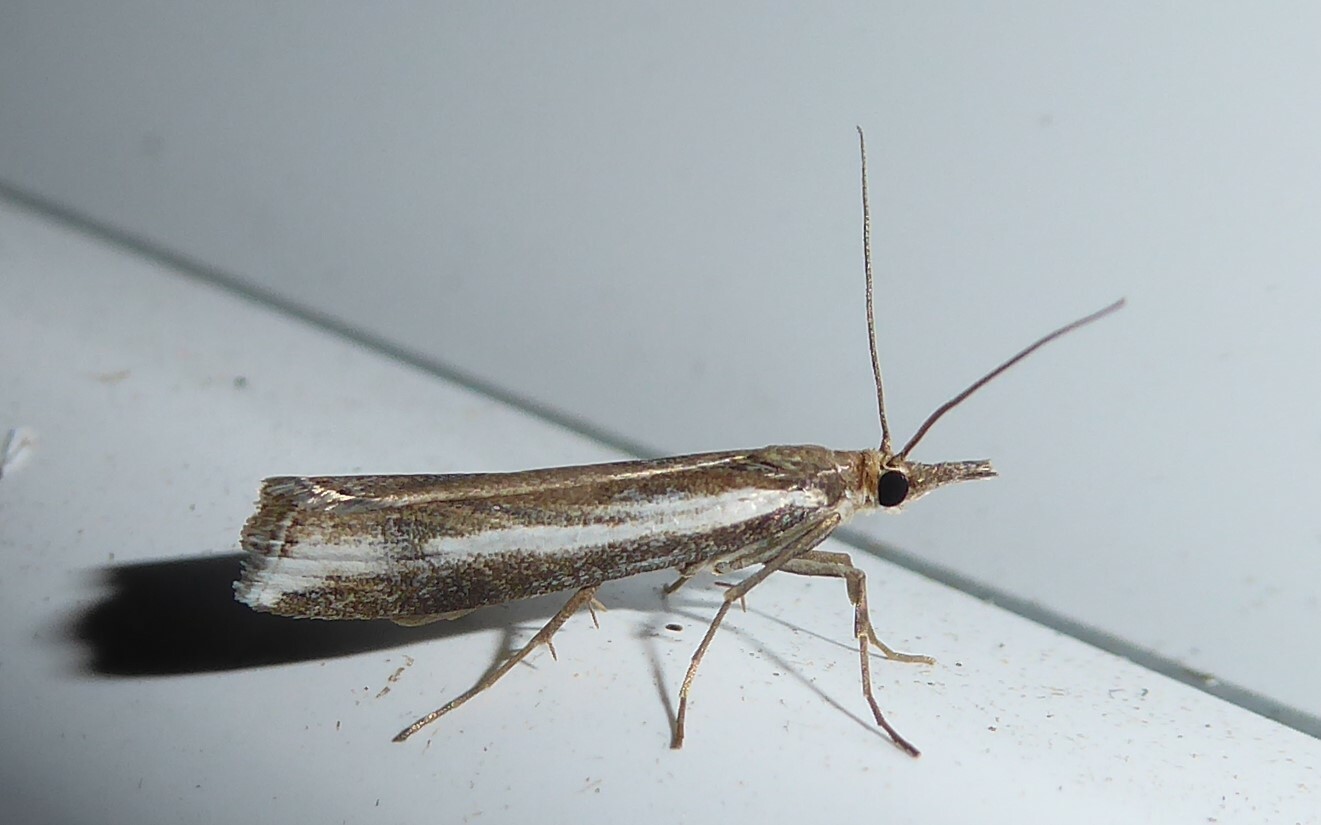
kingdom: Animalia
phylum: Arthropoda
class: Insecta
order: Lepidoptera
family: Crambidae
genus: Orocrambus
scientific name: Orocrambus vulgaris
